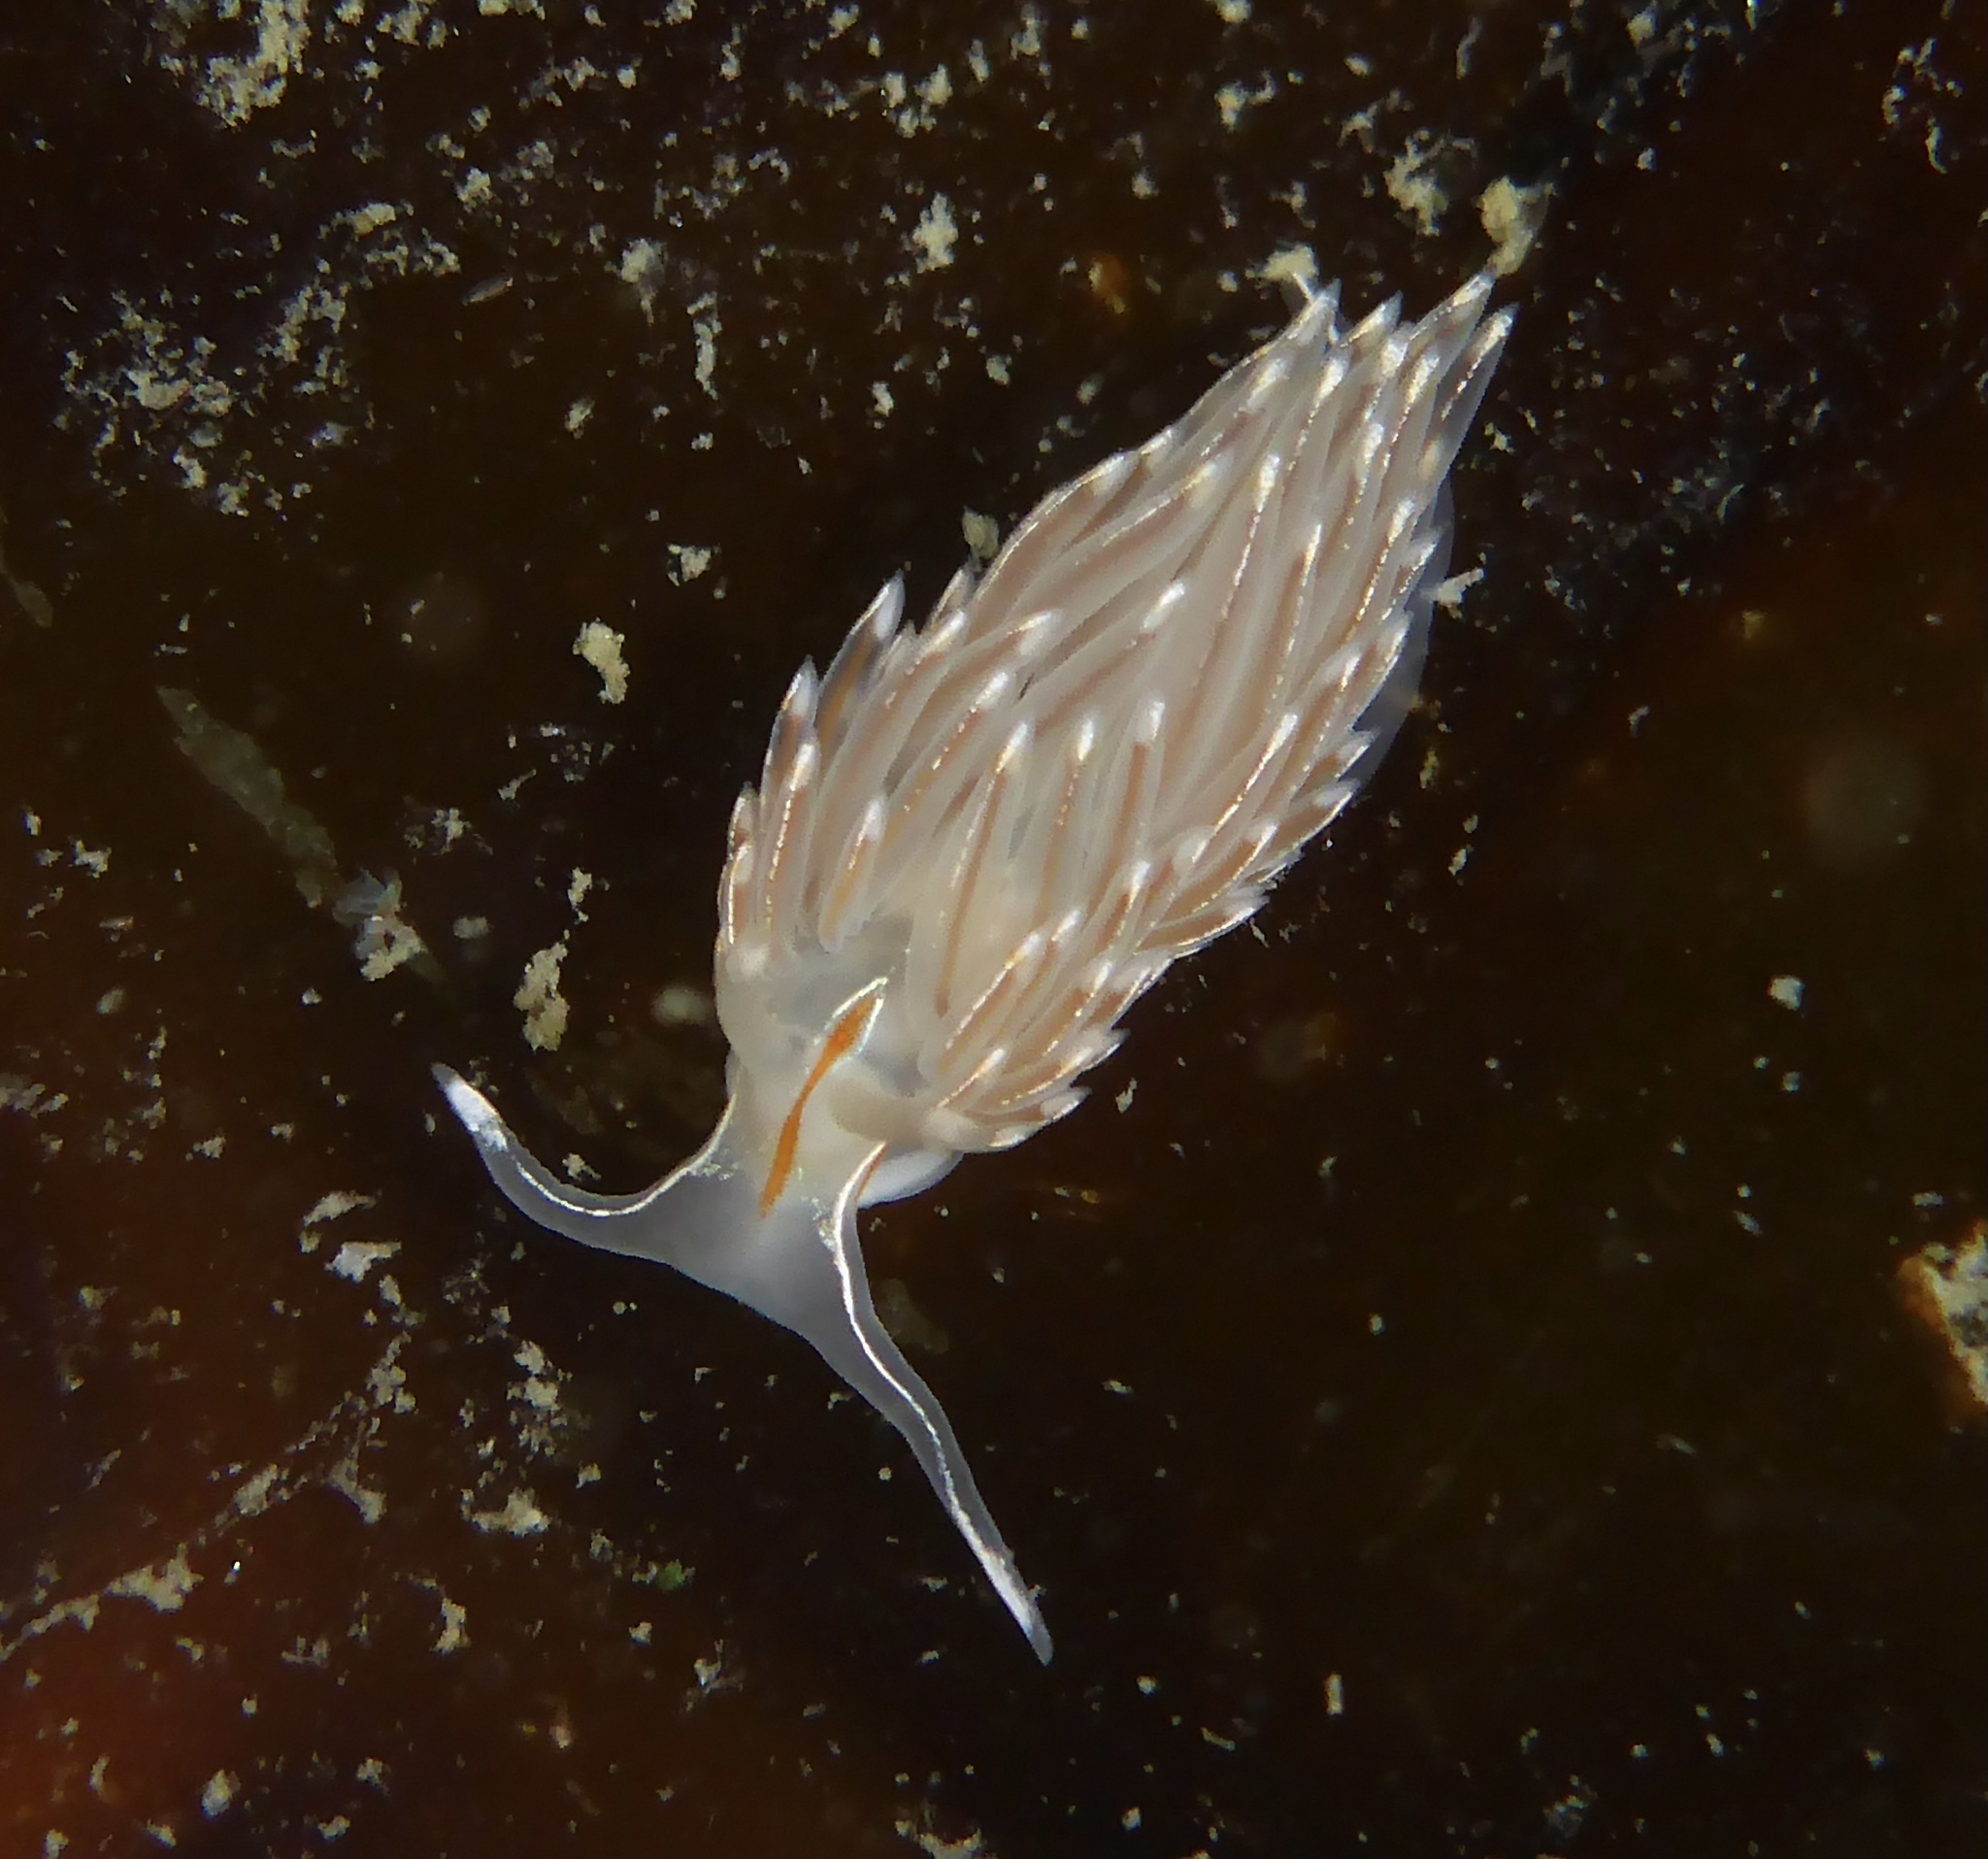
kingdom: Animalia
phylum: Mollusca
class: Gastropoda
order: Nudibranchia
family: Myrrhinidae
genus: Hermissenda
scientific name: Hermissenda crassicornis
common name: Hermissenda
